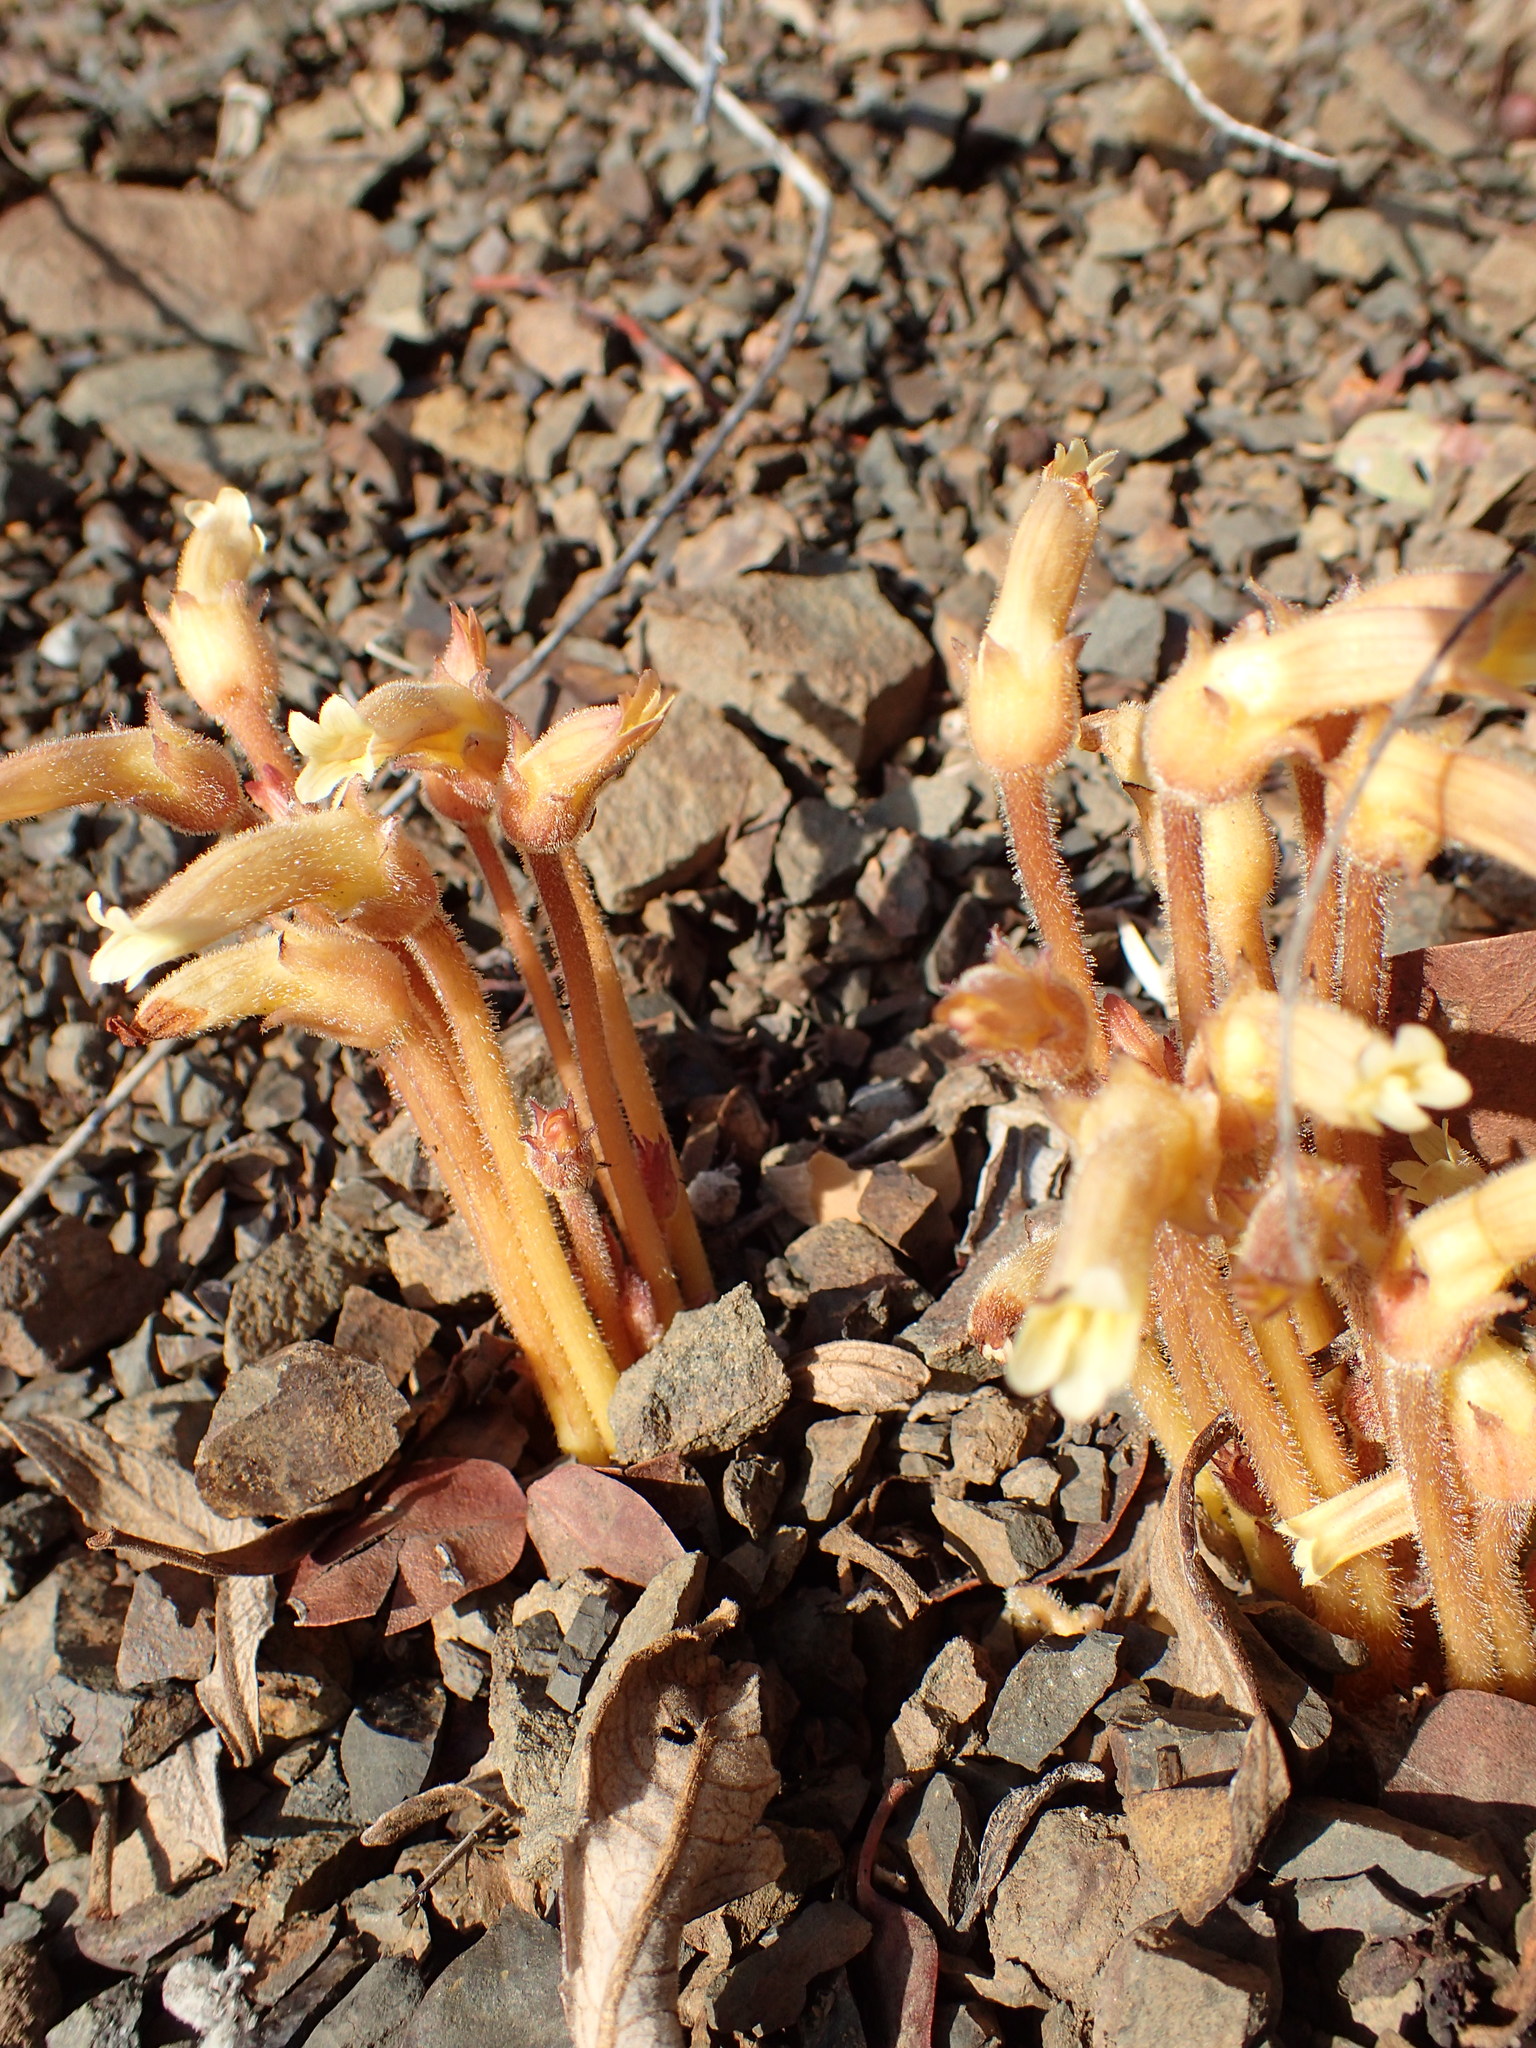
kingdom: Plantae
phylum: Tracheophyta
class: Magnoliopsida
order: Lamiales
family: Orobanchaceae
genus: Aphyllon
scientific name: Aphyllon franciscanum
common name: San francisco broomrape
